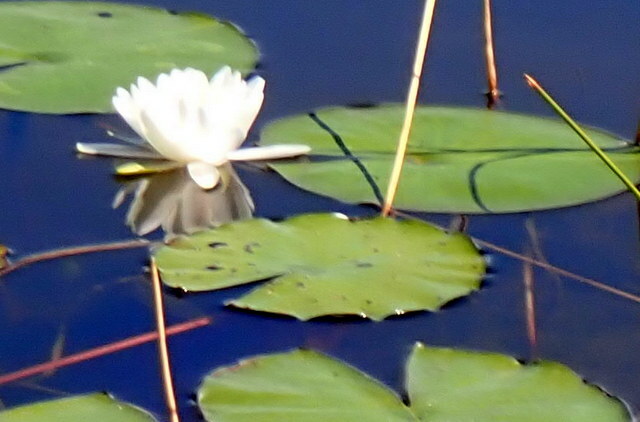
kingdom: Plantae
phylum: Tracheophyta
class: Magnoliopsida
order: Nymphaeales
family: Nymphaeaceae
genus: Nymphaea
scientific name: Nymphaea odorata
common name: Fragrant water-lily
